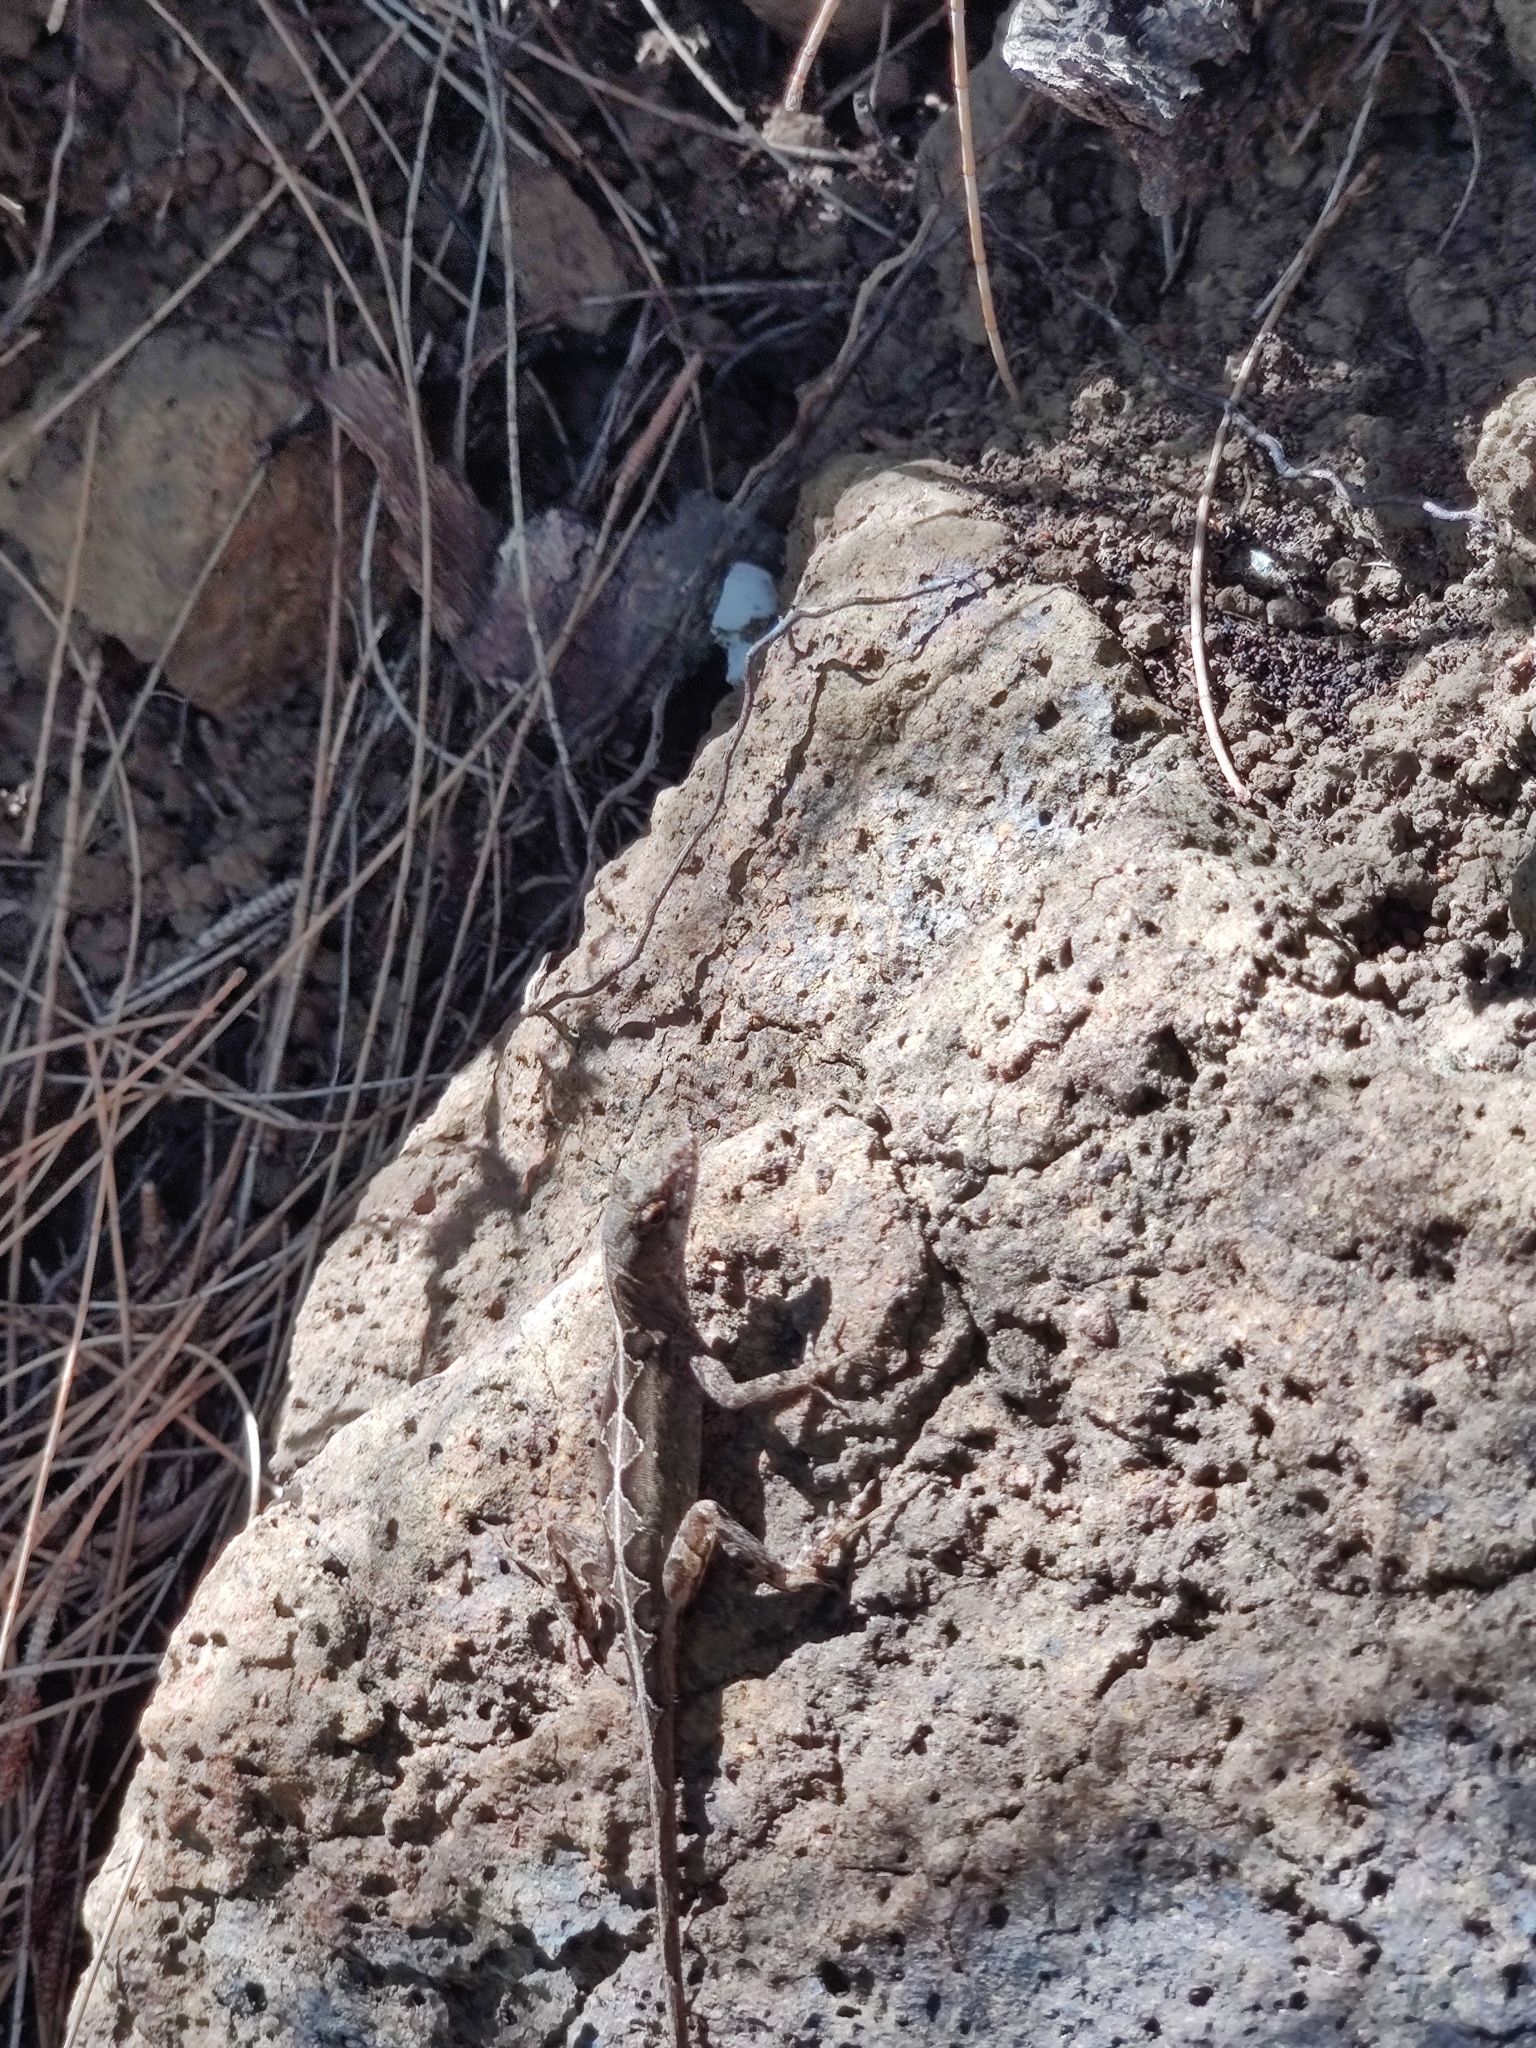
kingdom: Animalia
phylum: Chordata
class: Squamata
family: Dactyloidae
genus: Anolis
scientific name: Anolis sagrei
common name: Brown anole
